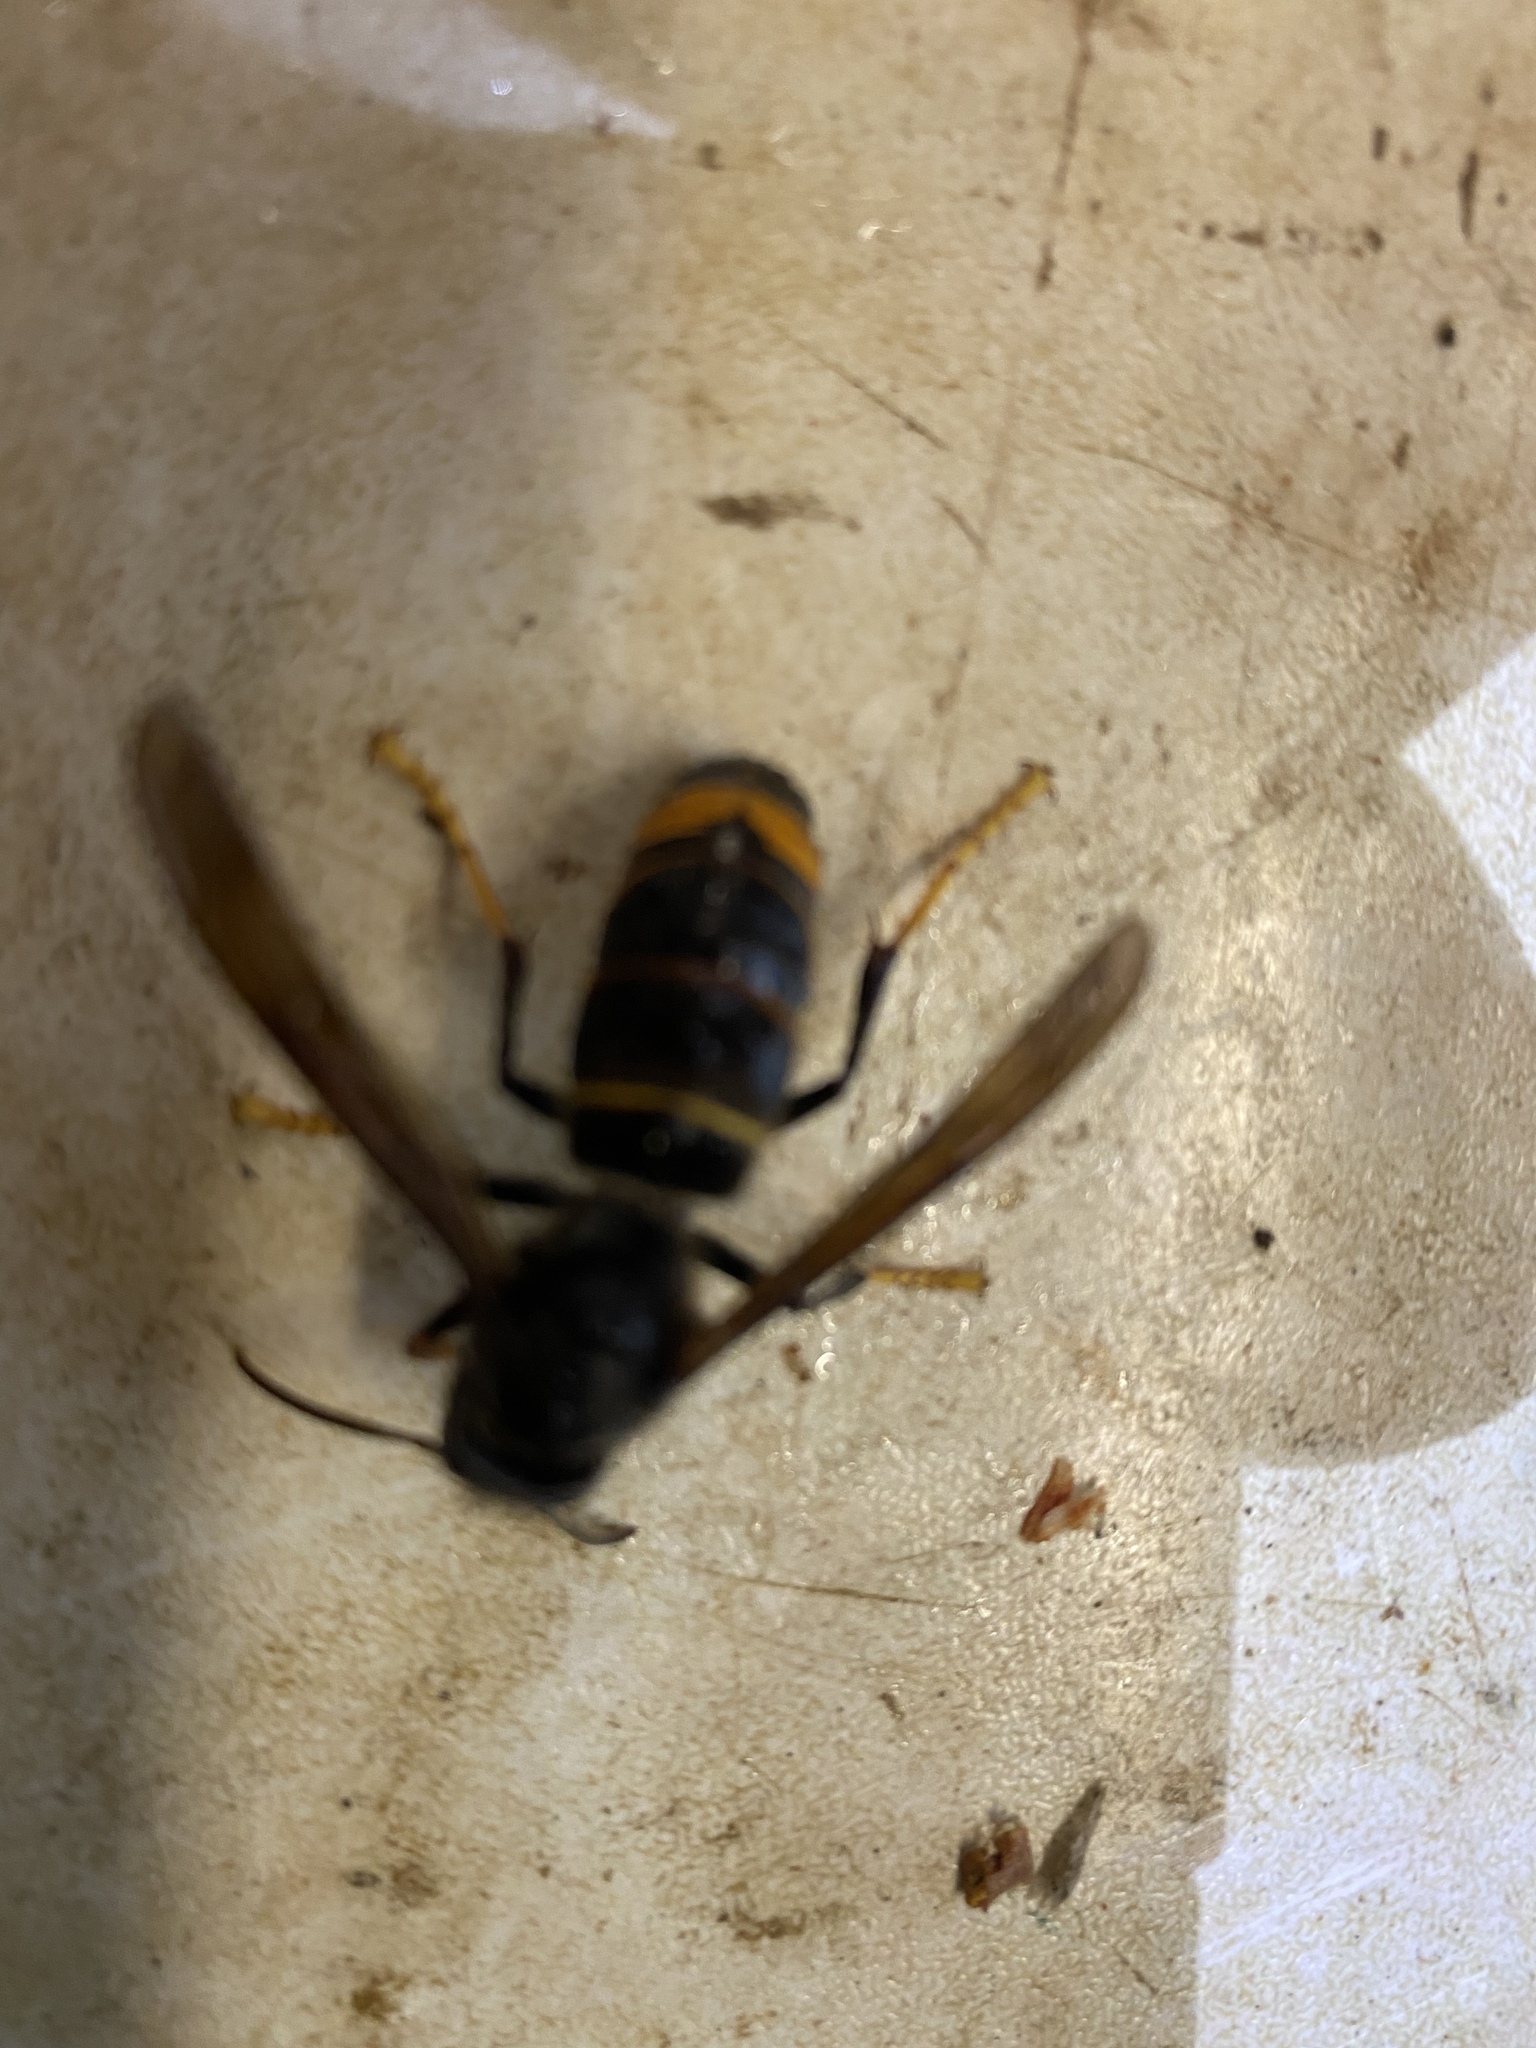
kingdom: Animalia
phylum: Arthropoda
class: Insecta
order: Hymenoptera
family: Vespidae
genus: Vespa
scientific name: Vespa velutina
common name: Asian hornet
